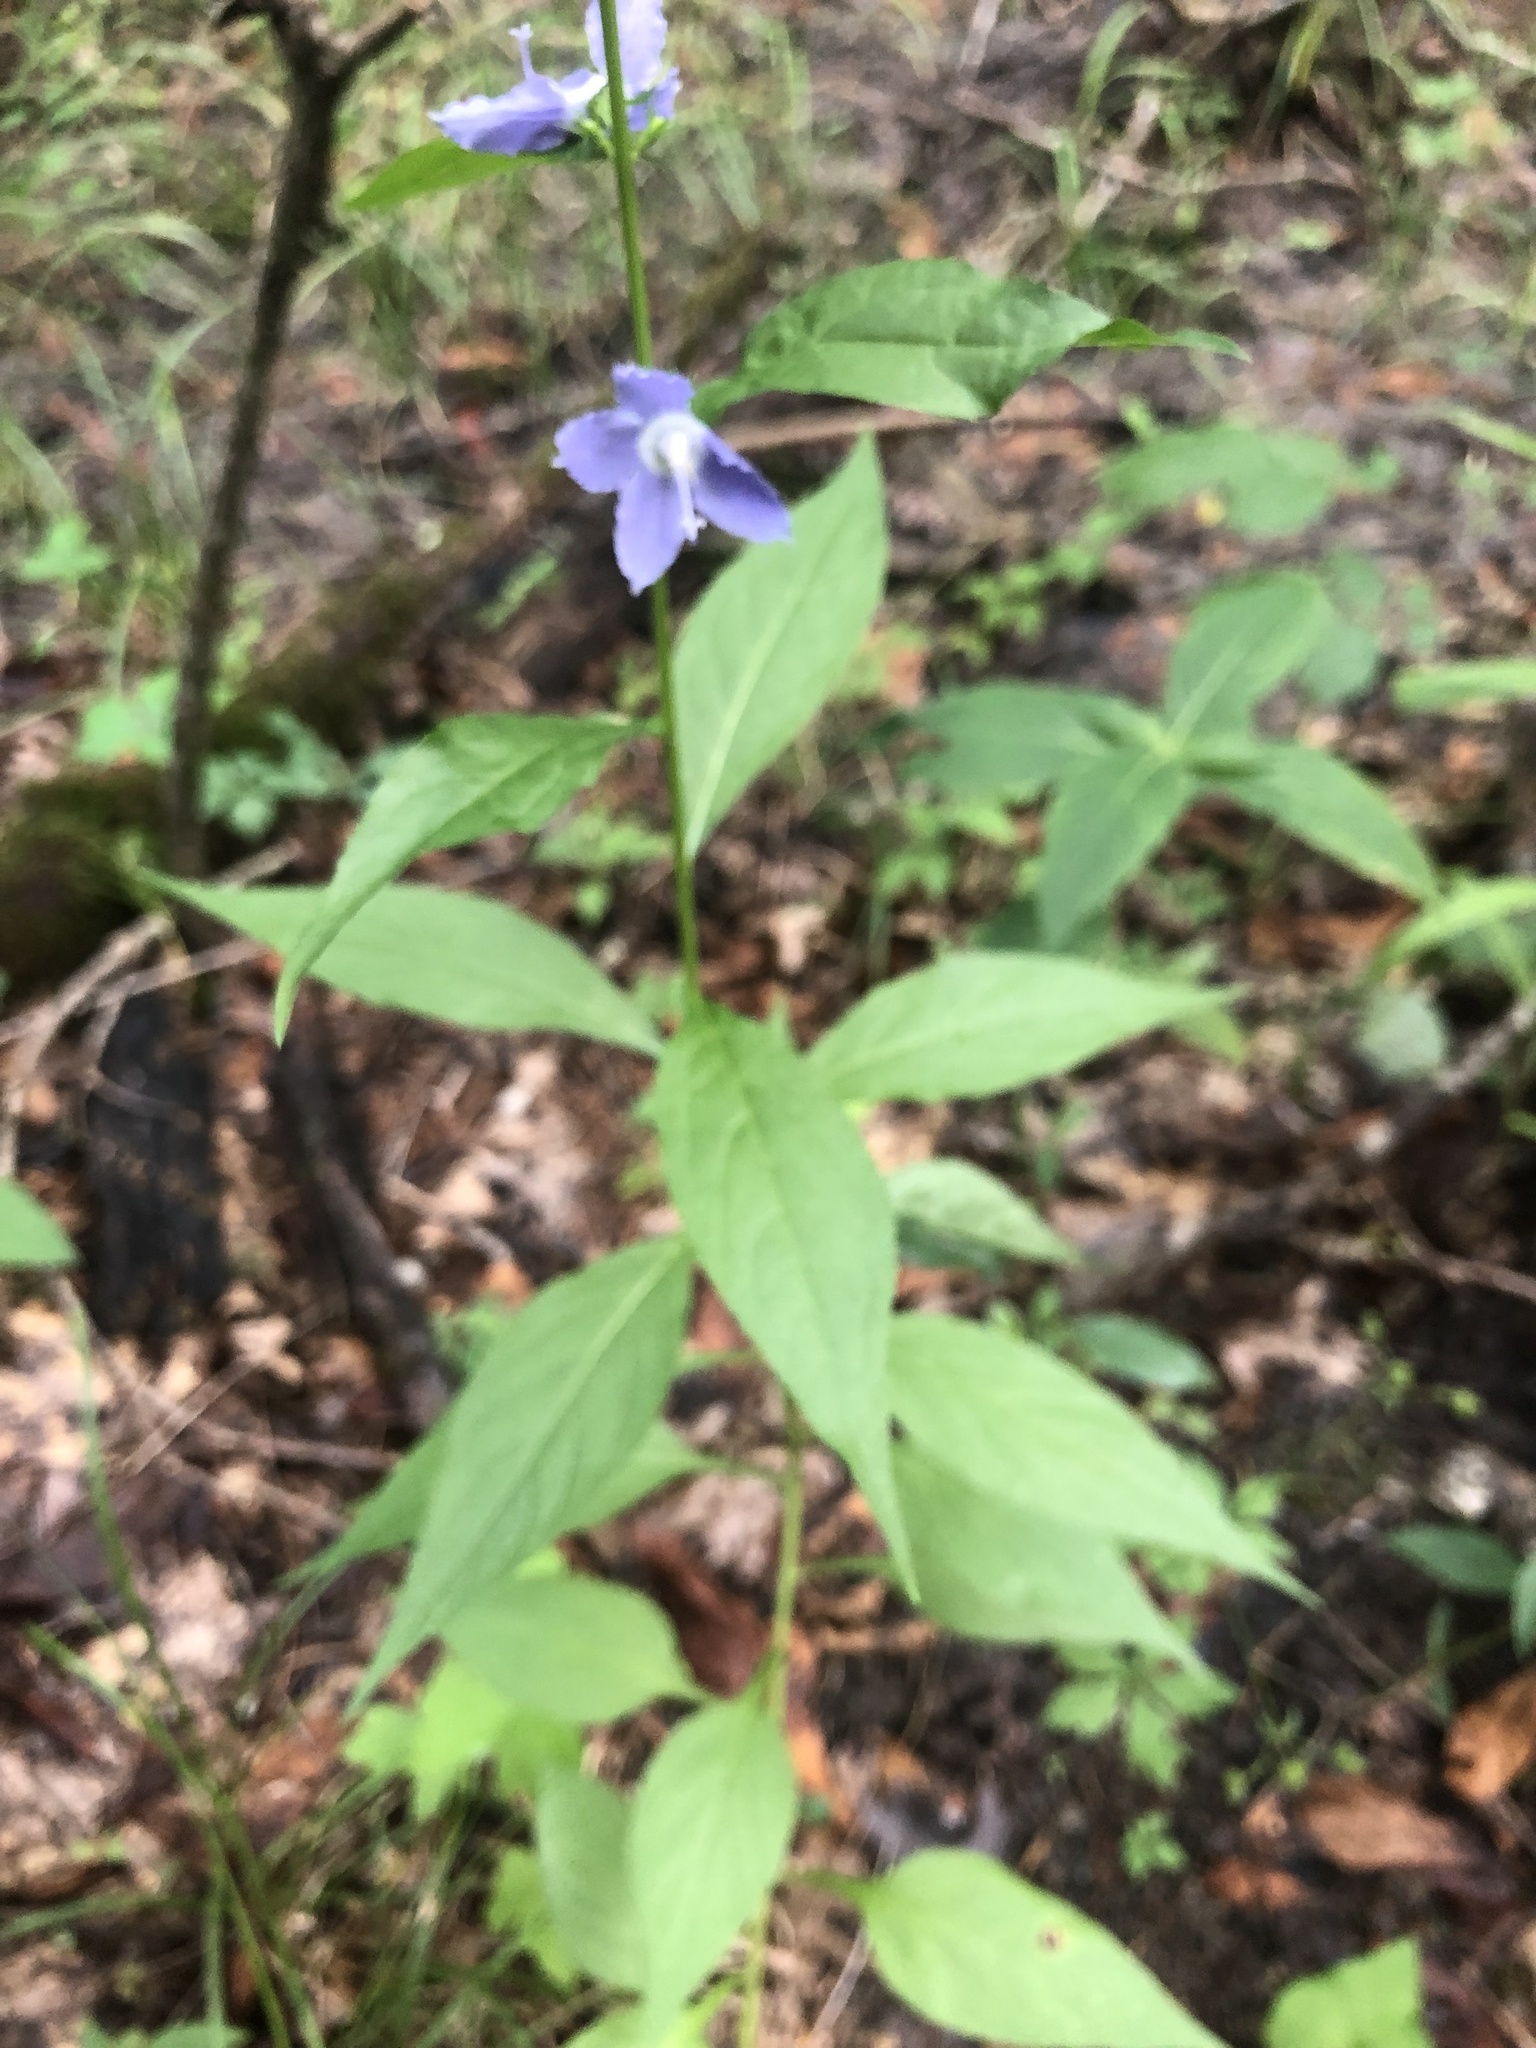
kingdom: Plantae
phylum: Tracheophyta
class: Magnoliopsida
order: Asterales
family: Campanulaceae
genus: Campanulastrum
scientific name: Campanulastrum americanum
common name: American bellflower
